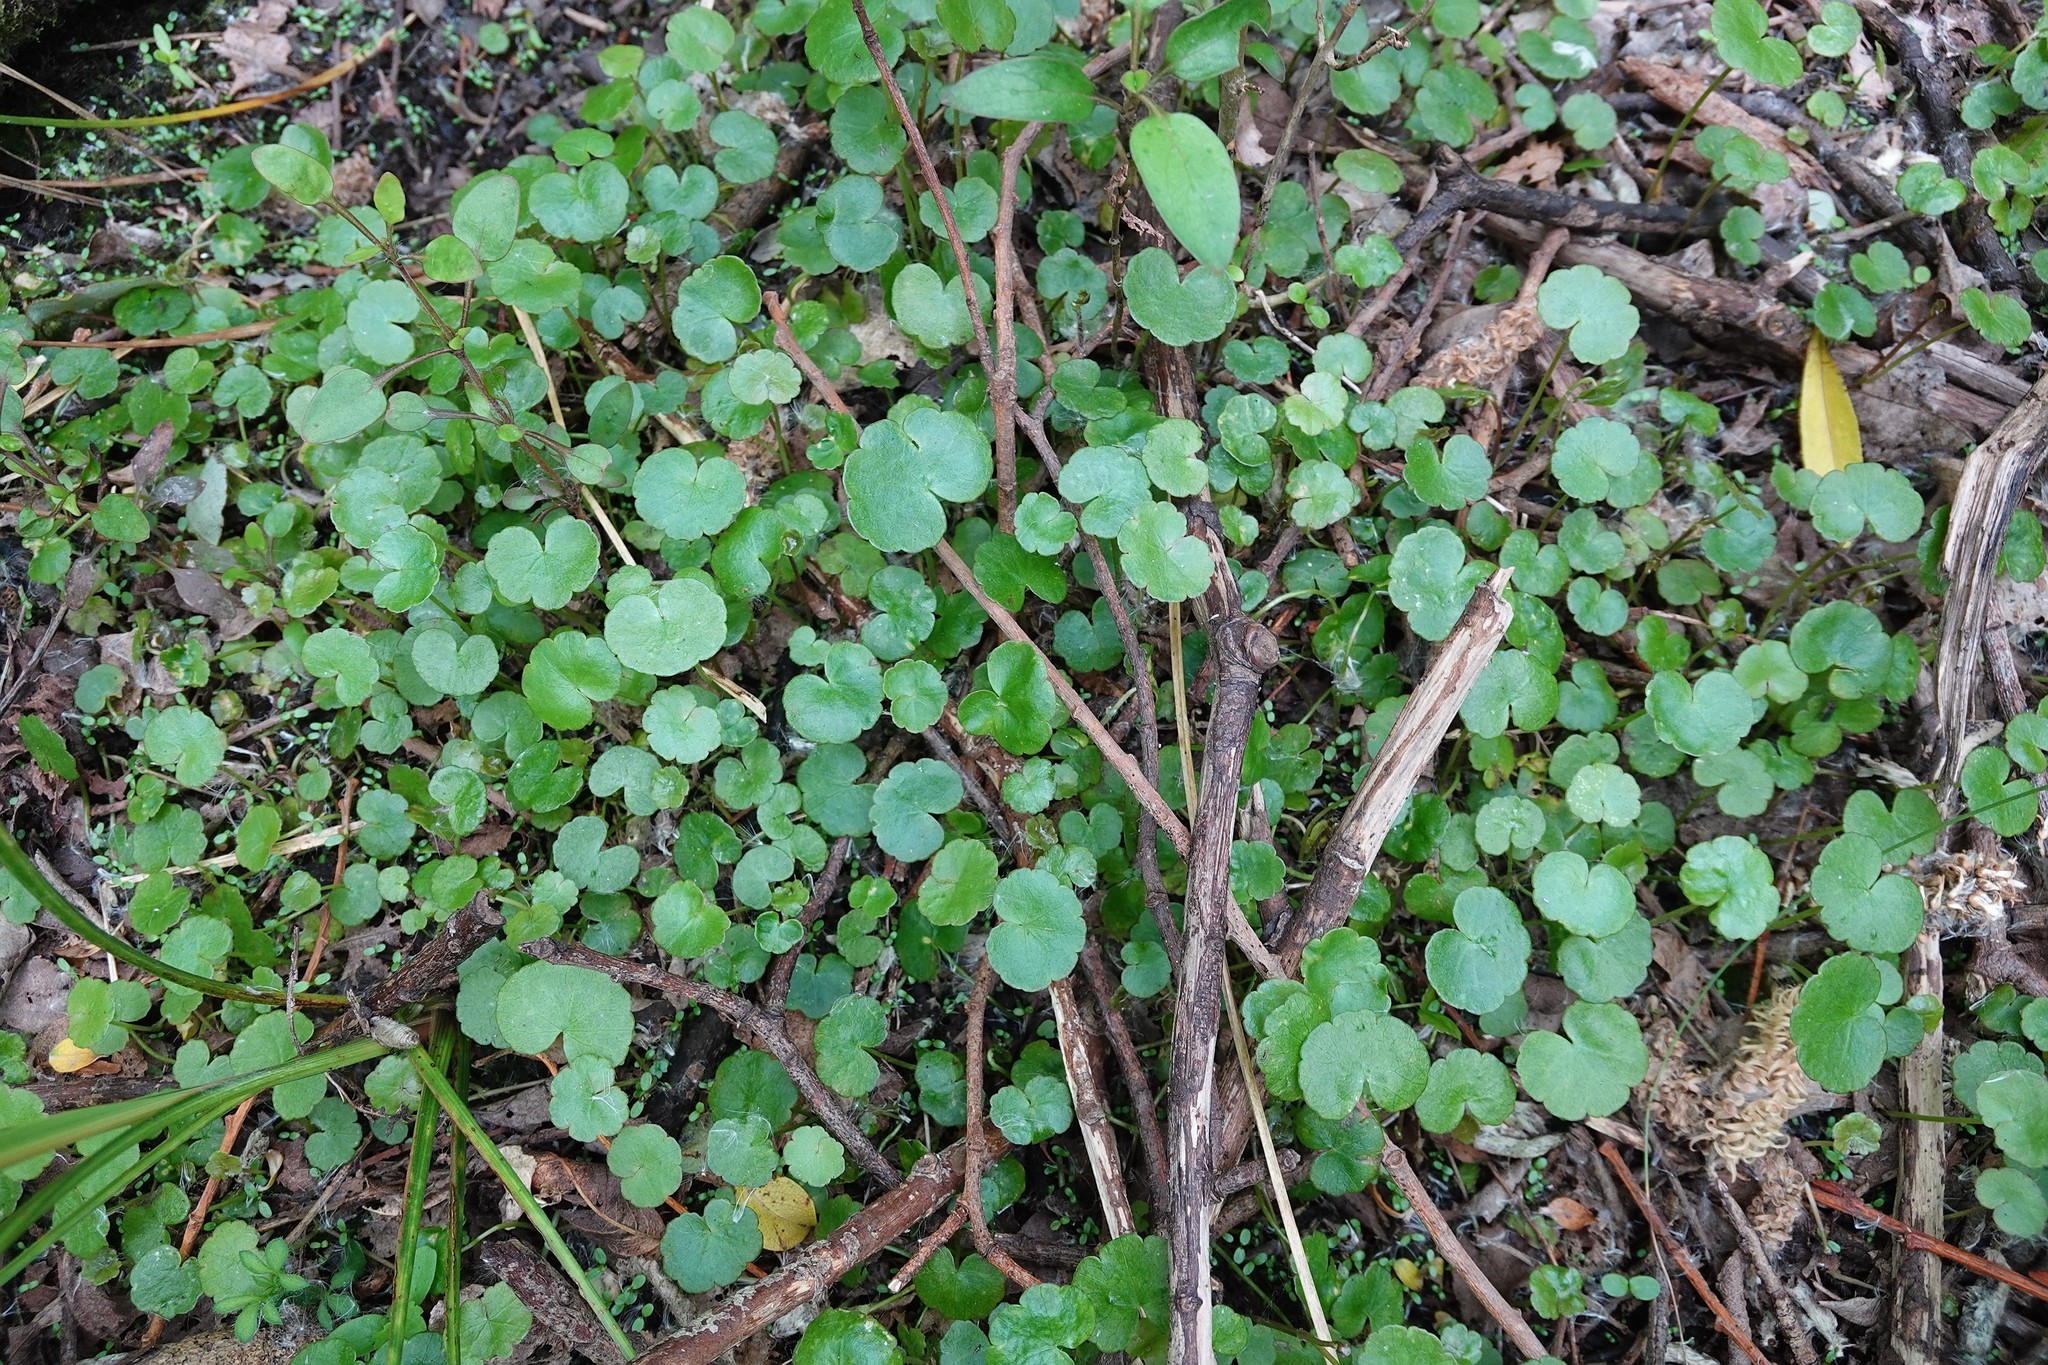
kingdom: Plantae
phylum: Tracheophyta
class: Magnoliopsida
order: Apiales
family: Araliaceae
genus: Hydrocotyle
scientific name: Hydrocotyle pterocarpa
